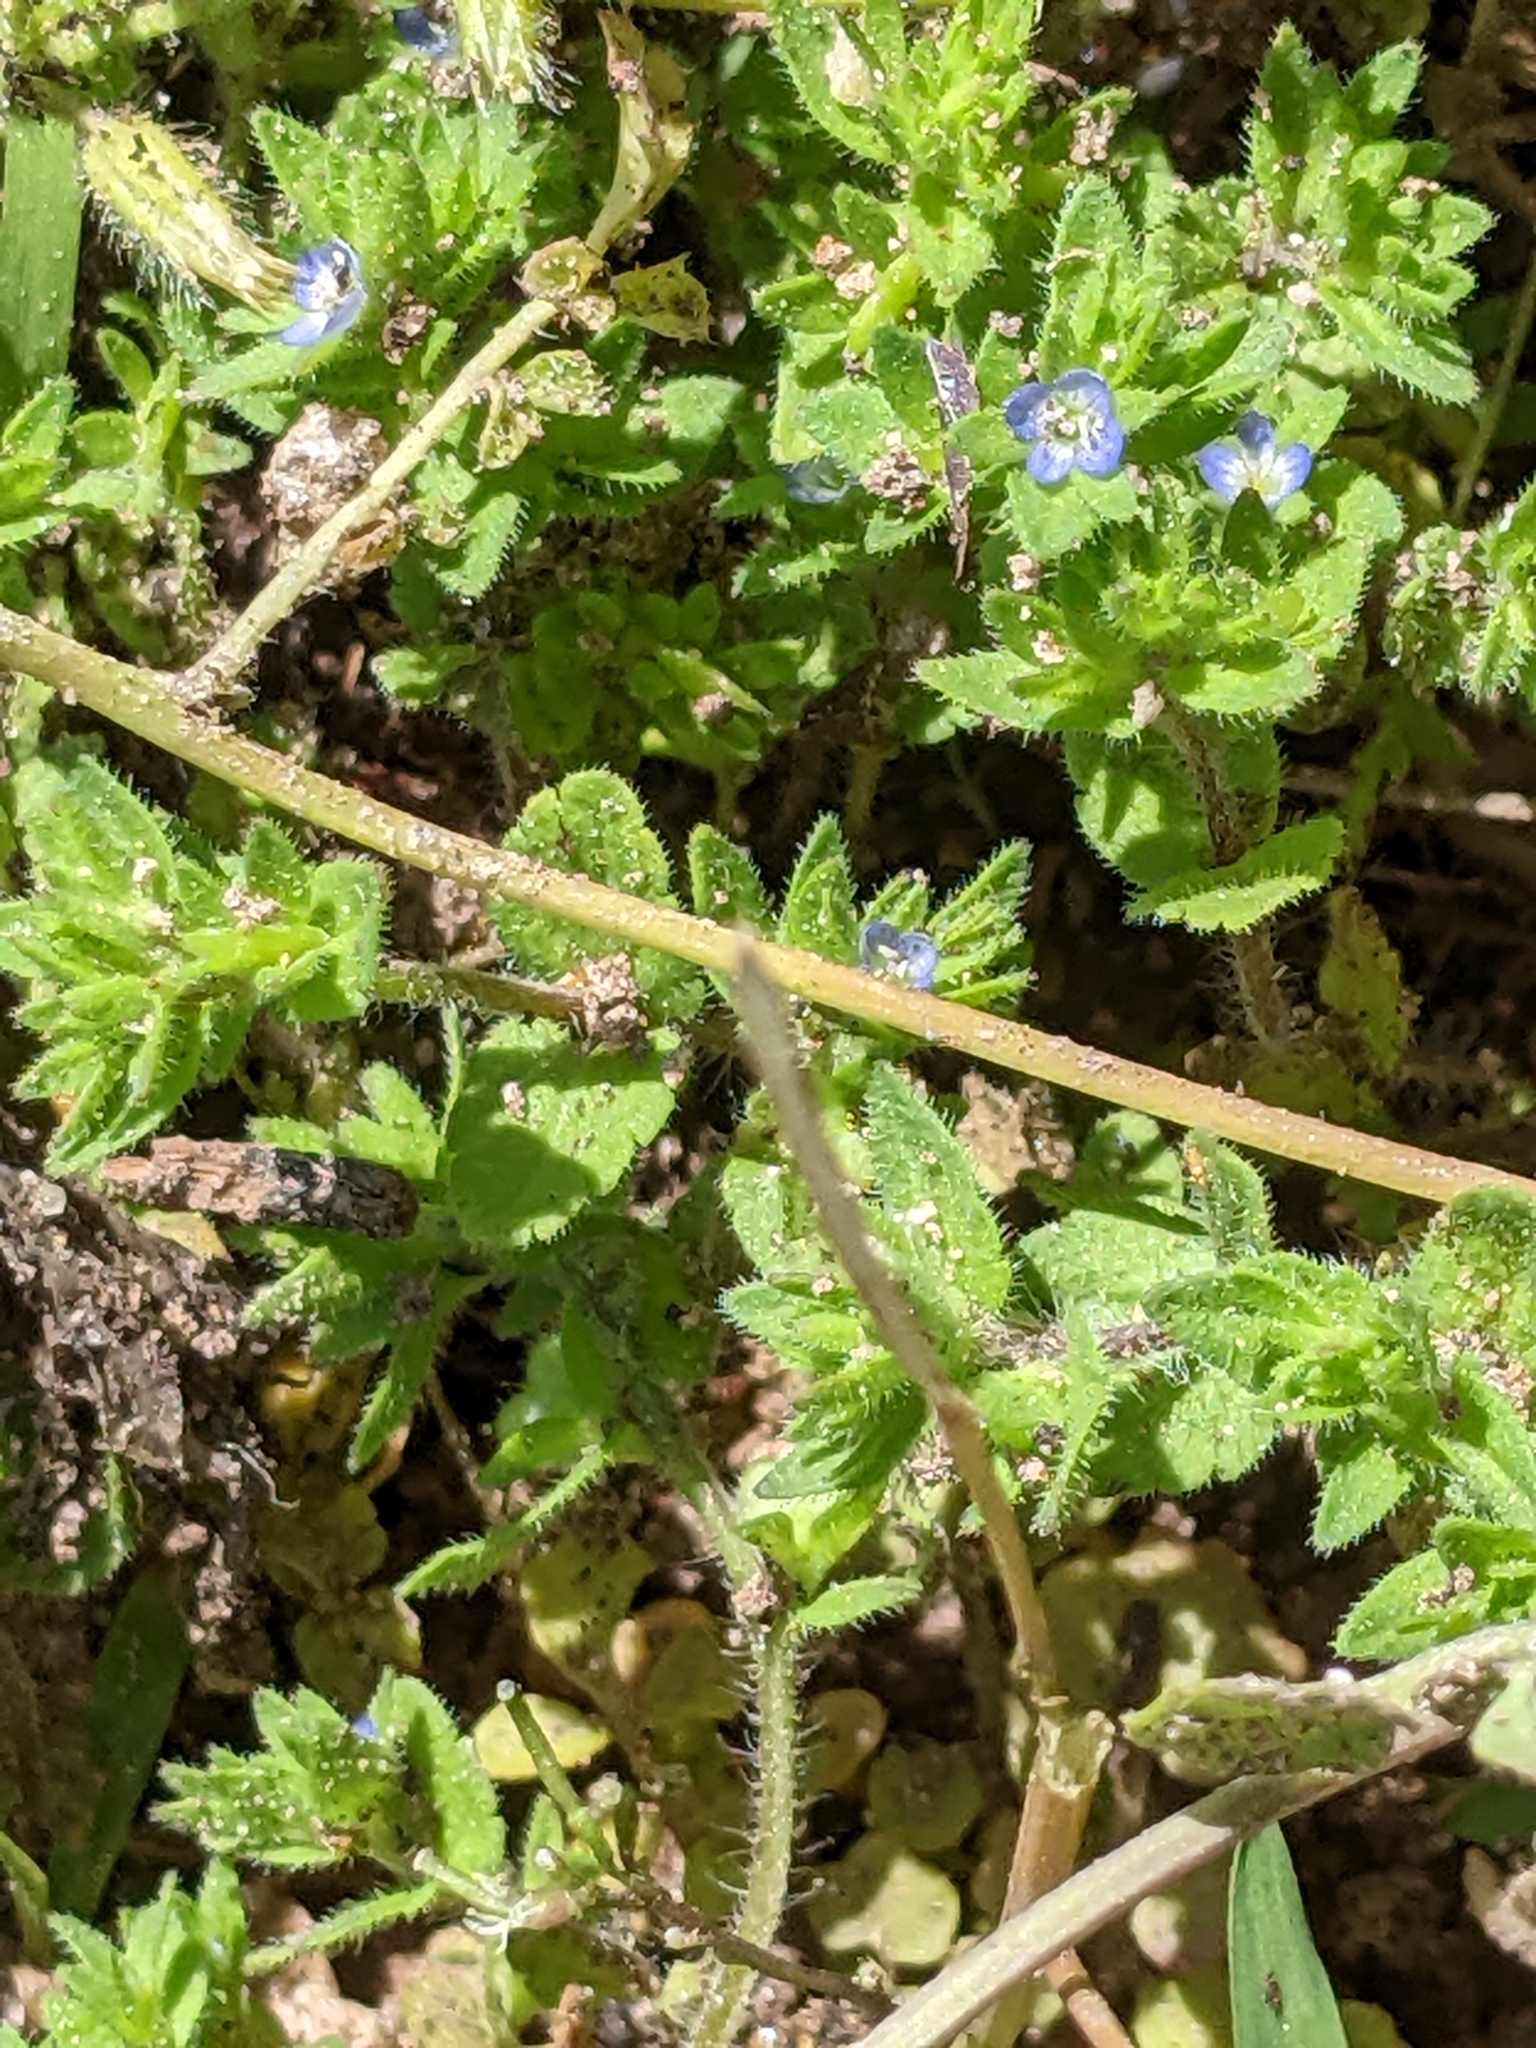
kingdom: Plantae
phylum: Tracheophyta
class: Magnoliopsida
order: Lamiales
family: Plantaginaceae
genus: Veronica
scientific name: Veronica arvensis
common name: Corn speedwell
